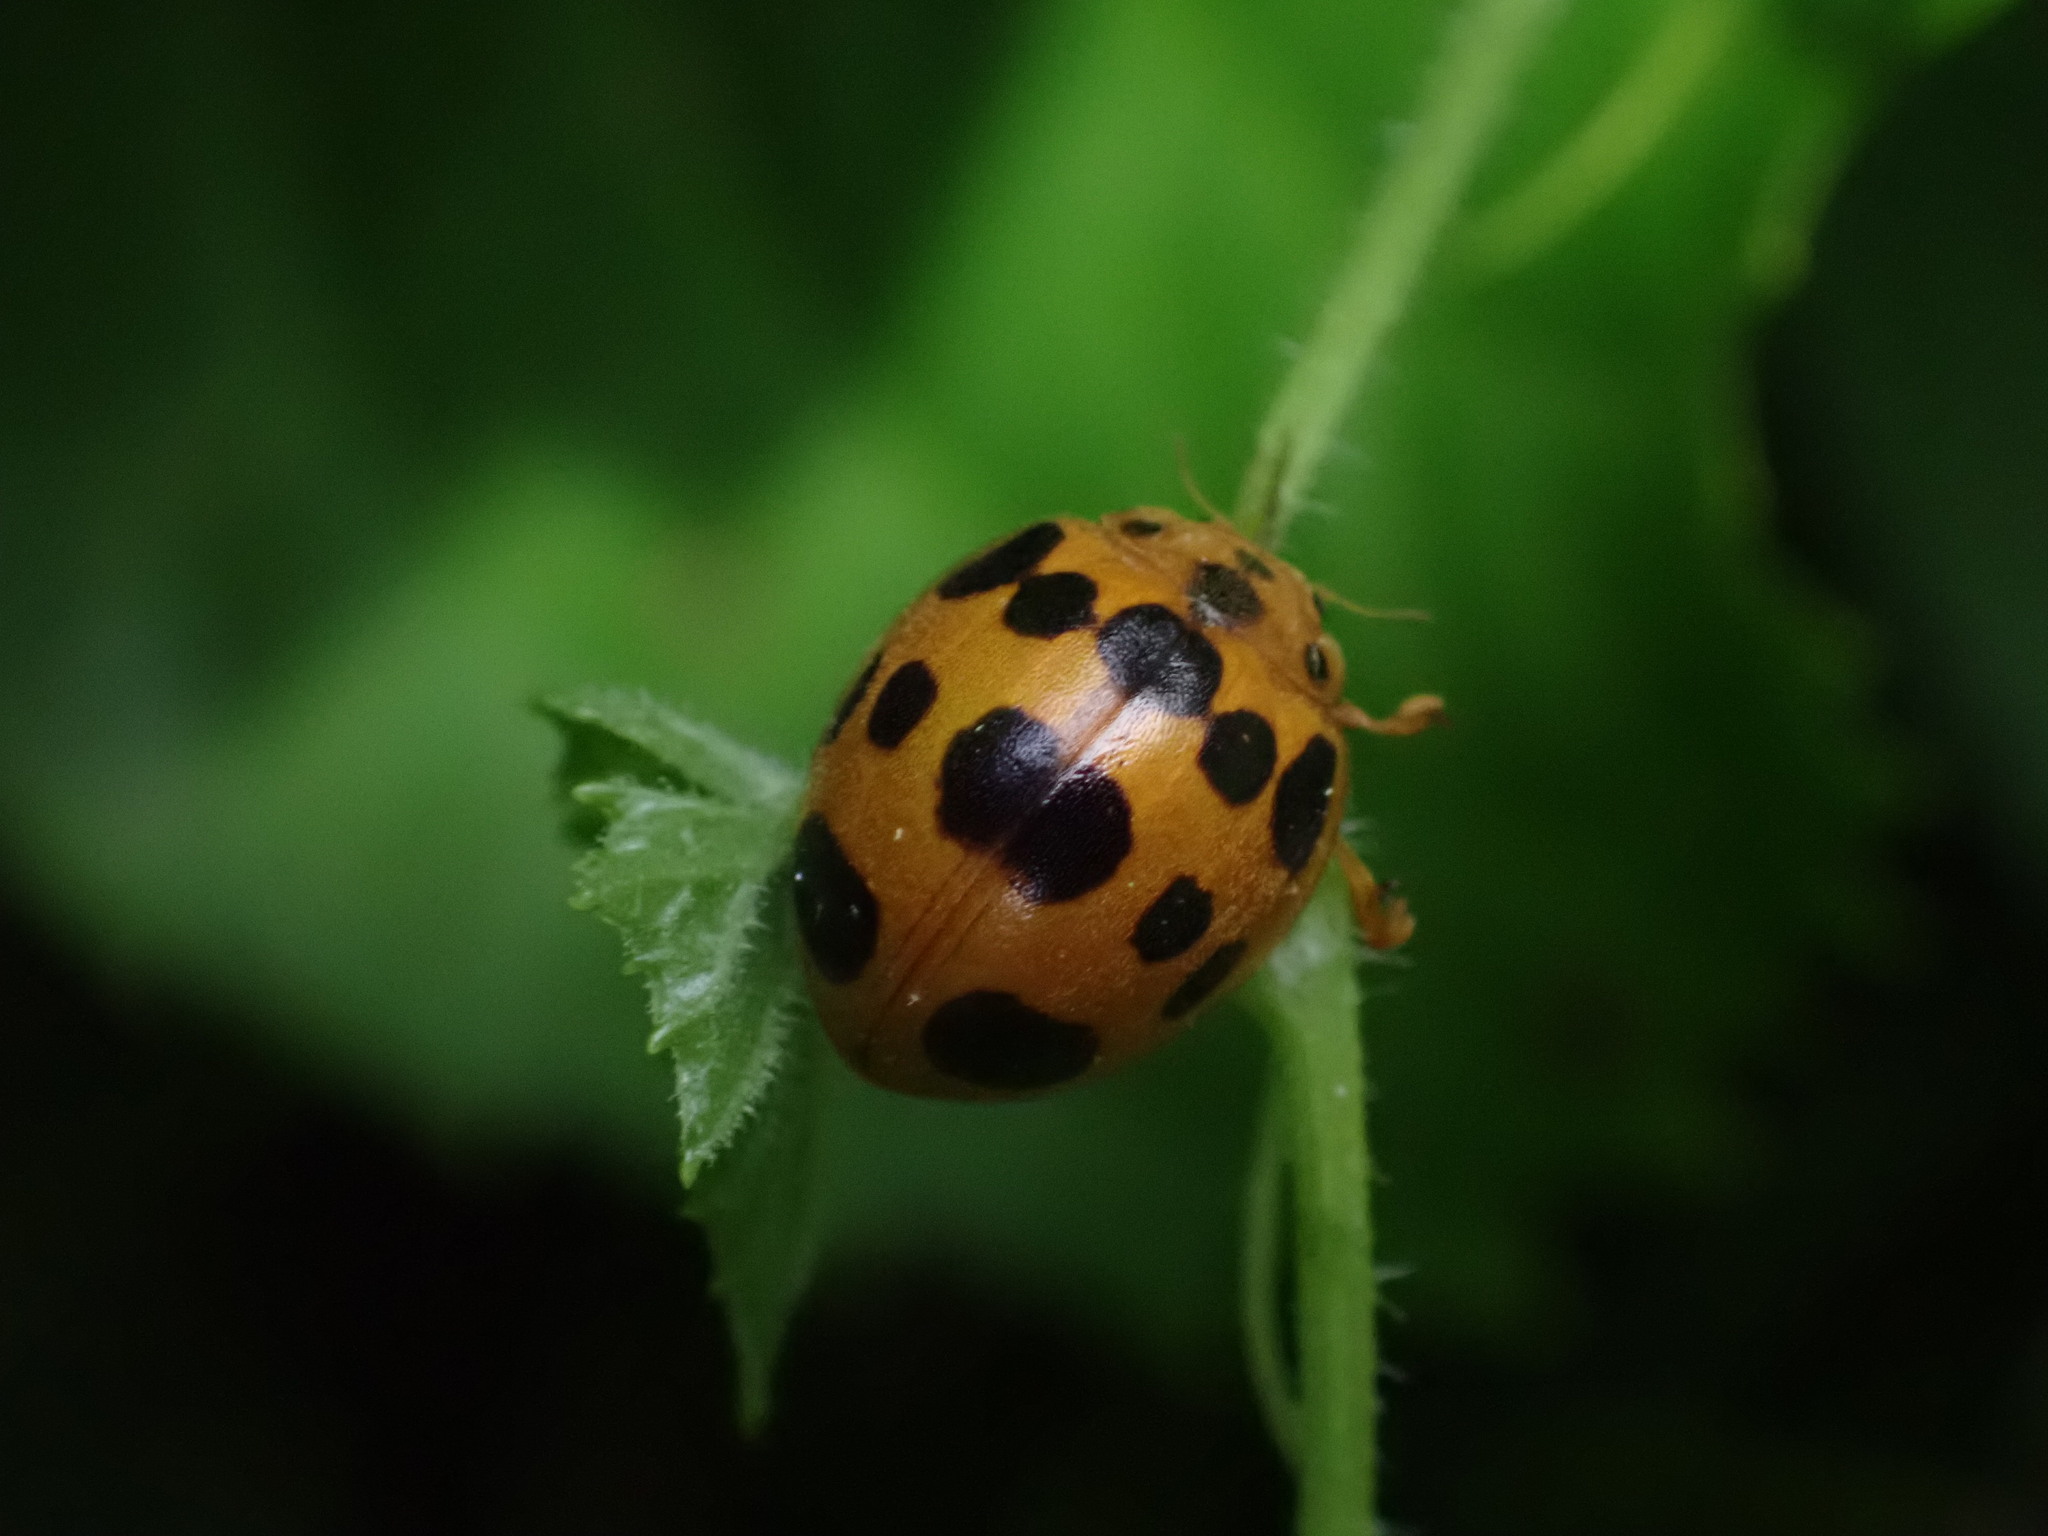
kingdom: Animalia
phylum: Arthropoda
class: Insecta
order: Coleoptera
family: Coccinellidae
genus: Epilachna
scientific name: Epilachna borealis
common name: Squash beetle
